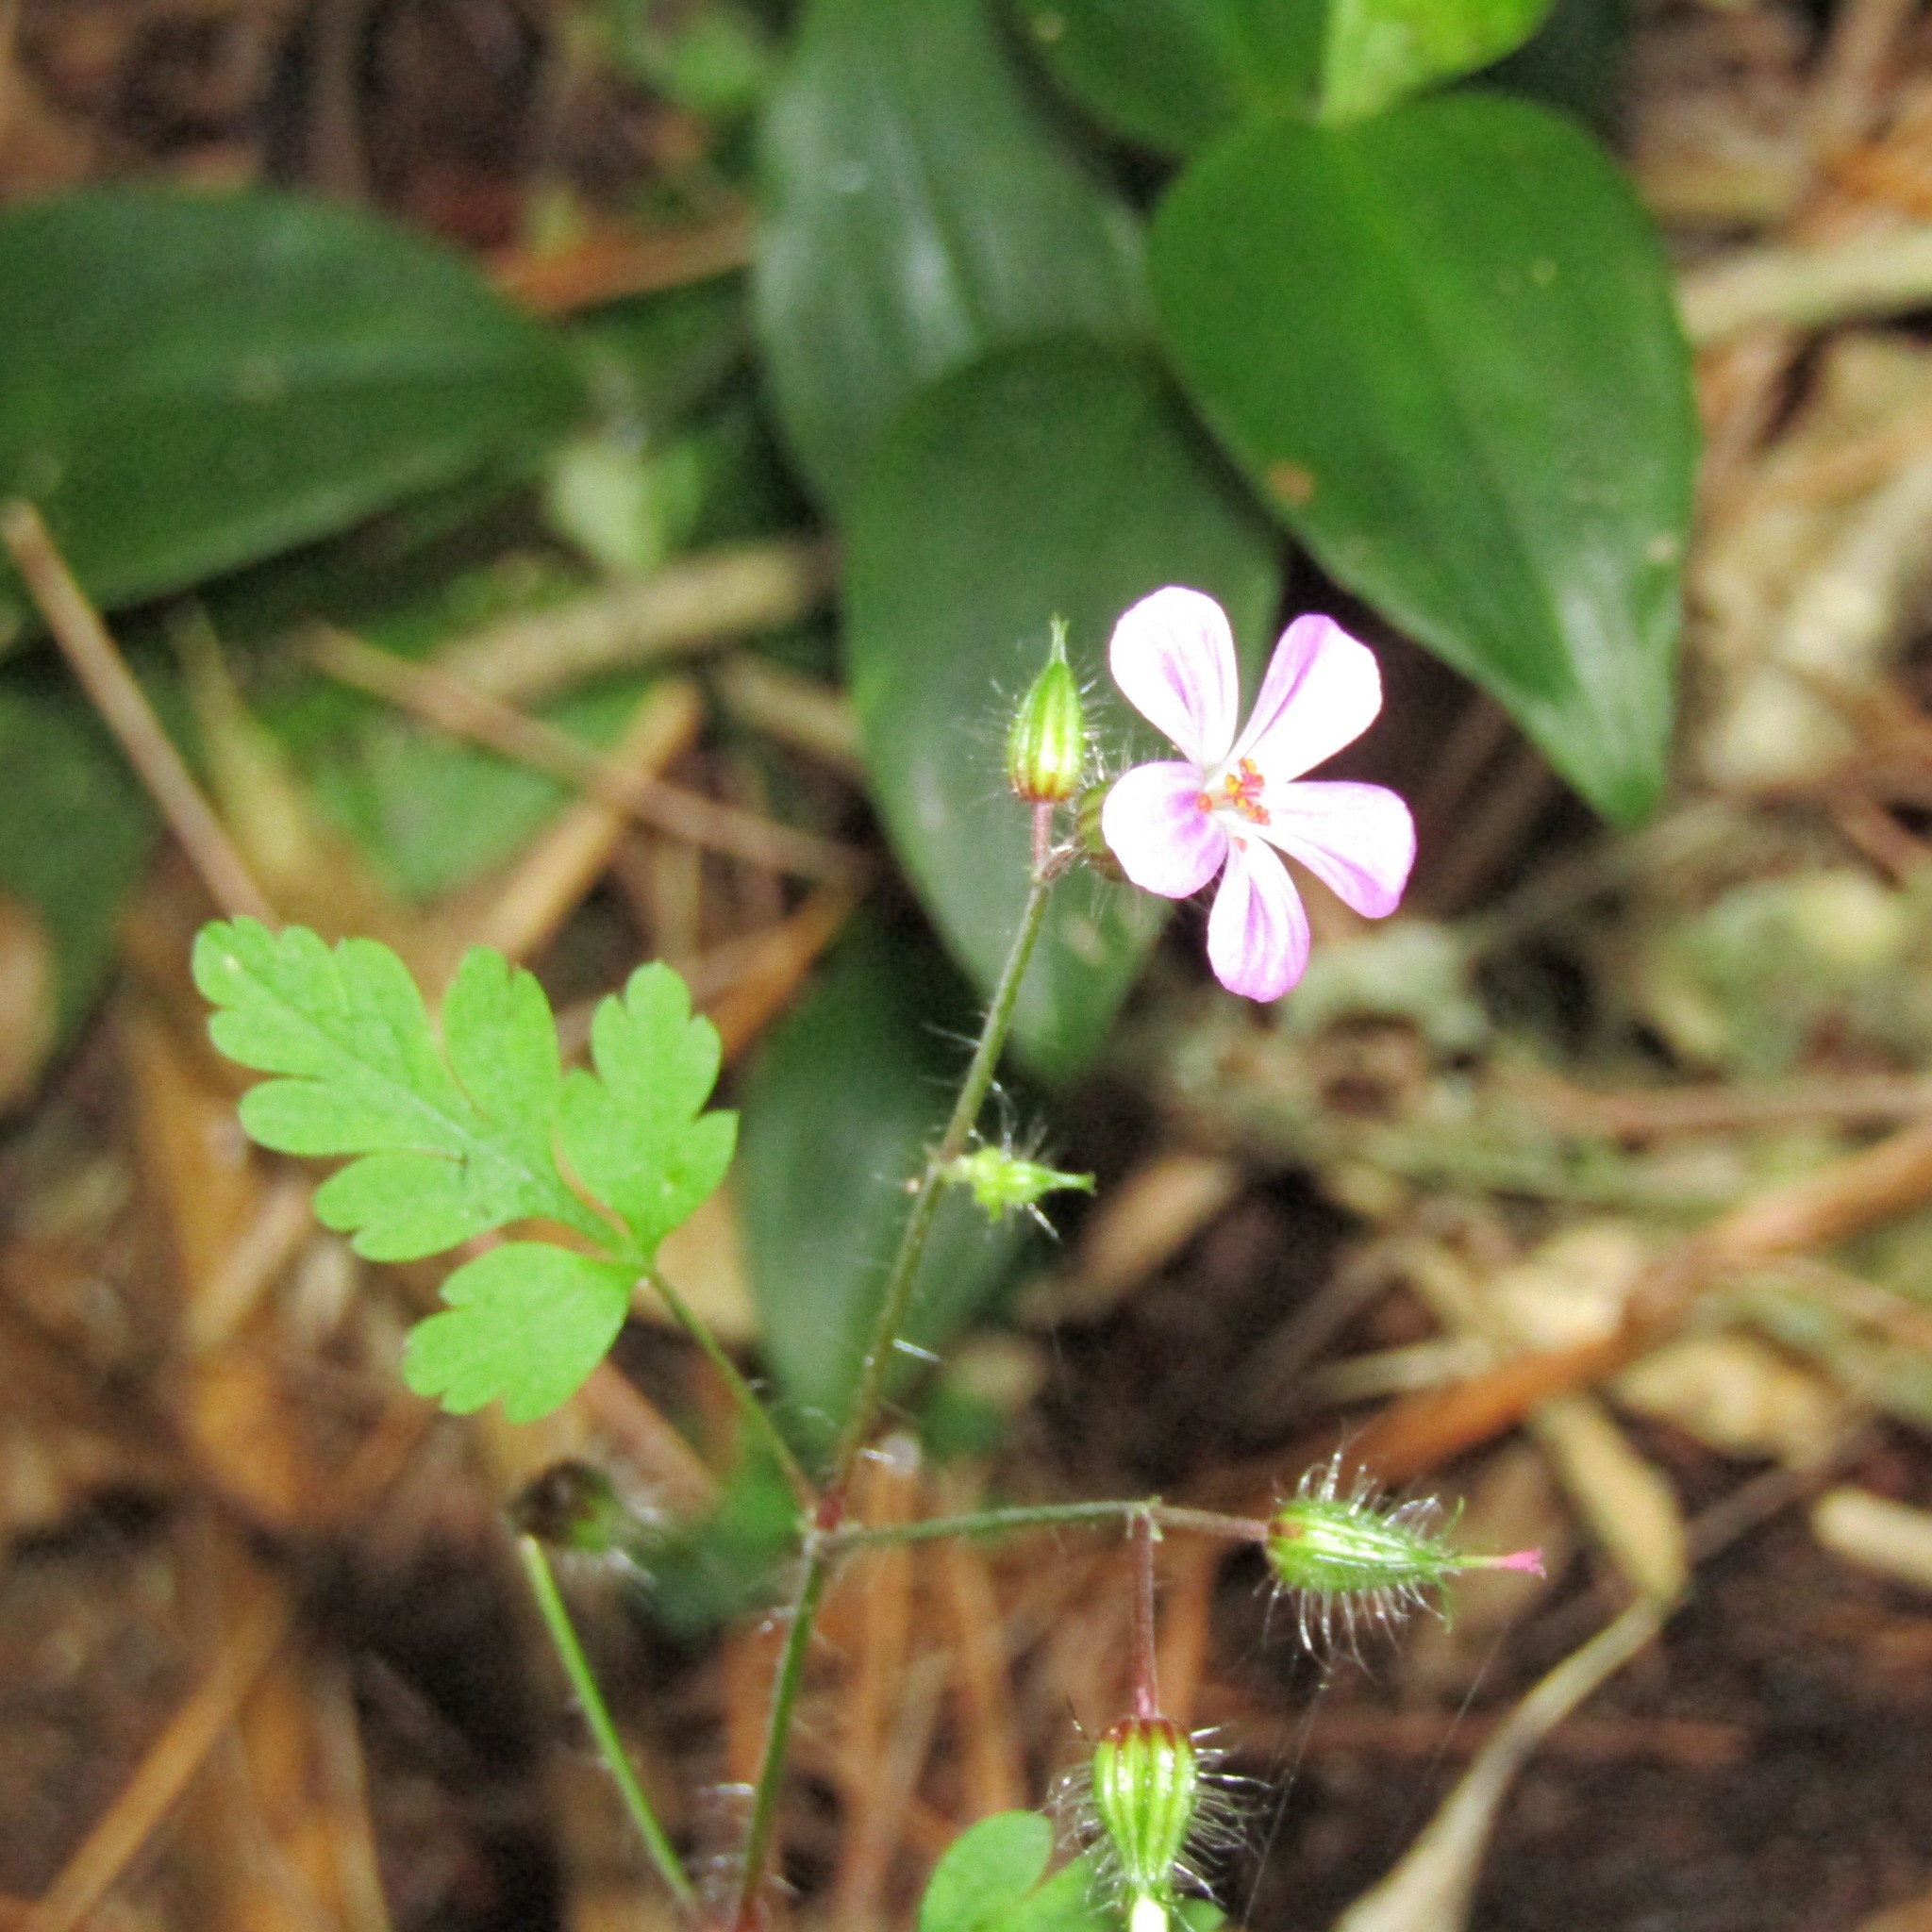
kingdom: Plantae
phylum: Tracheophyta
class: Magnoliopsida
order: Geraniales
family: Geraniaceae
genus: Geranium
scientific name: Geranium robertianum
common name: Herb-robert
